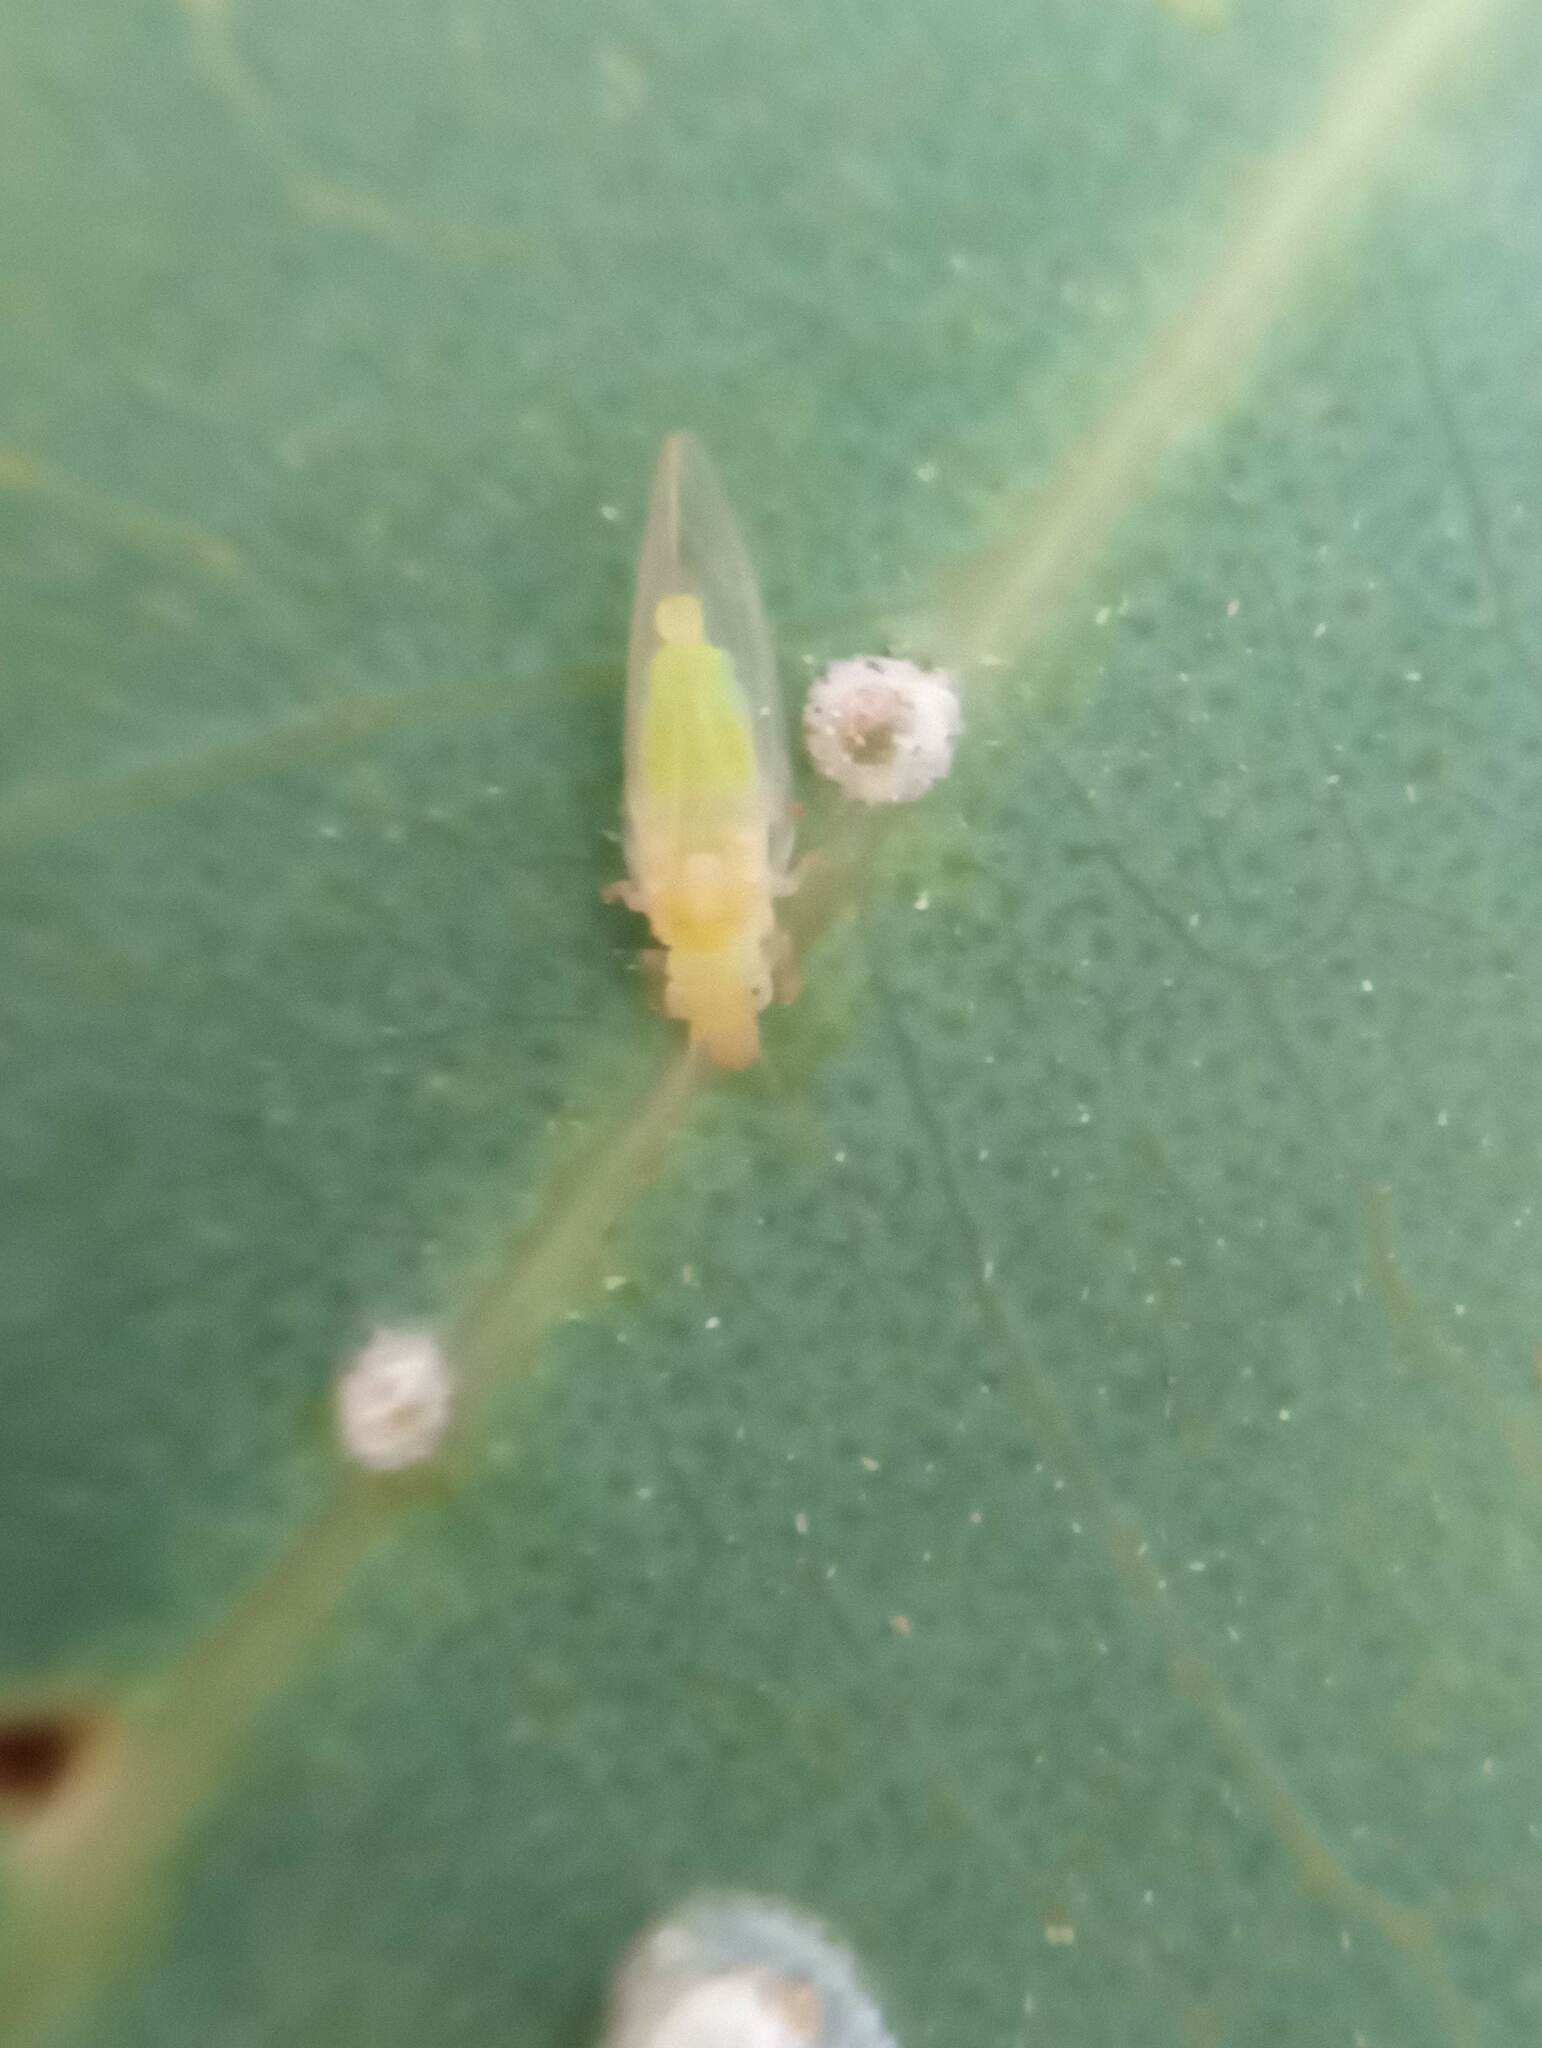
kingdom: Animalia
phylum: Arthropoda
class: Insecta
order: Hemiptera
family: Aphalaridae
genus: Glycaspis
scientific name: Glycaspis brimblecombei
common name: Red gum lerp psyllid
